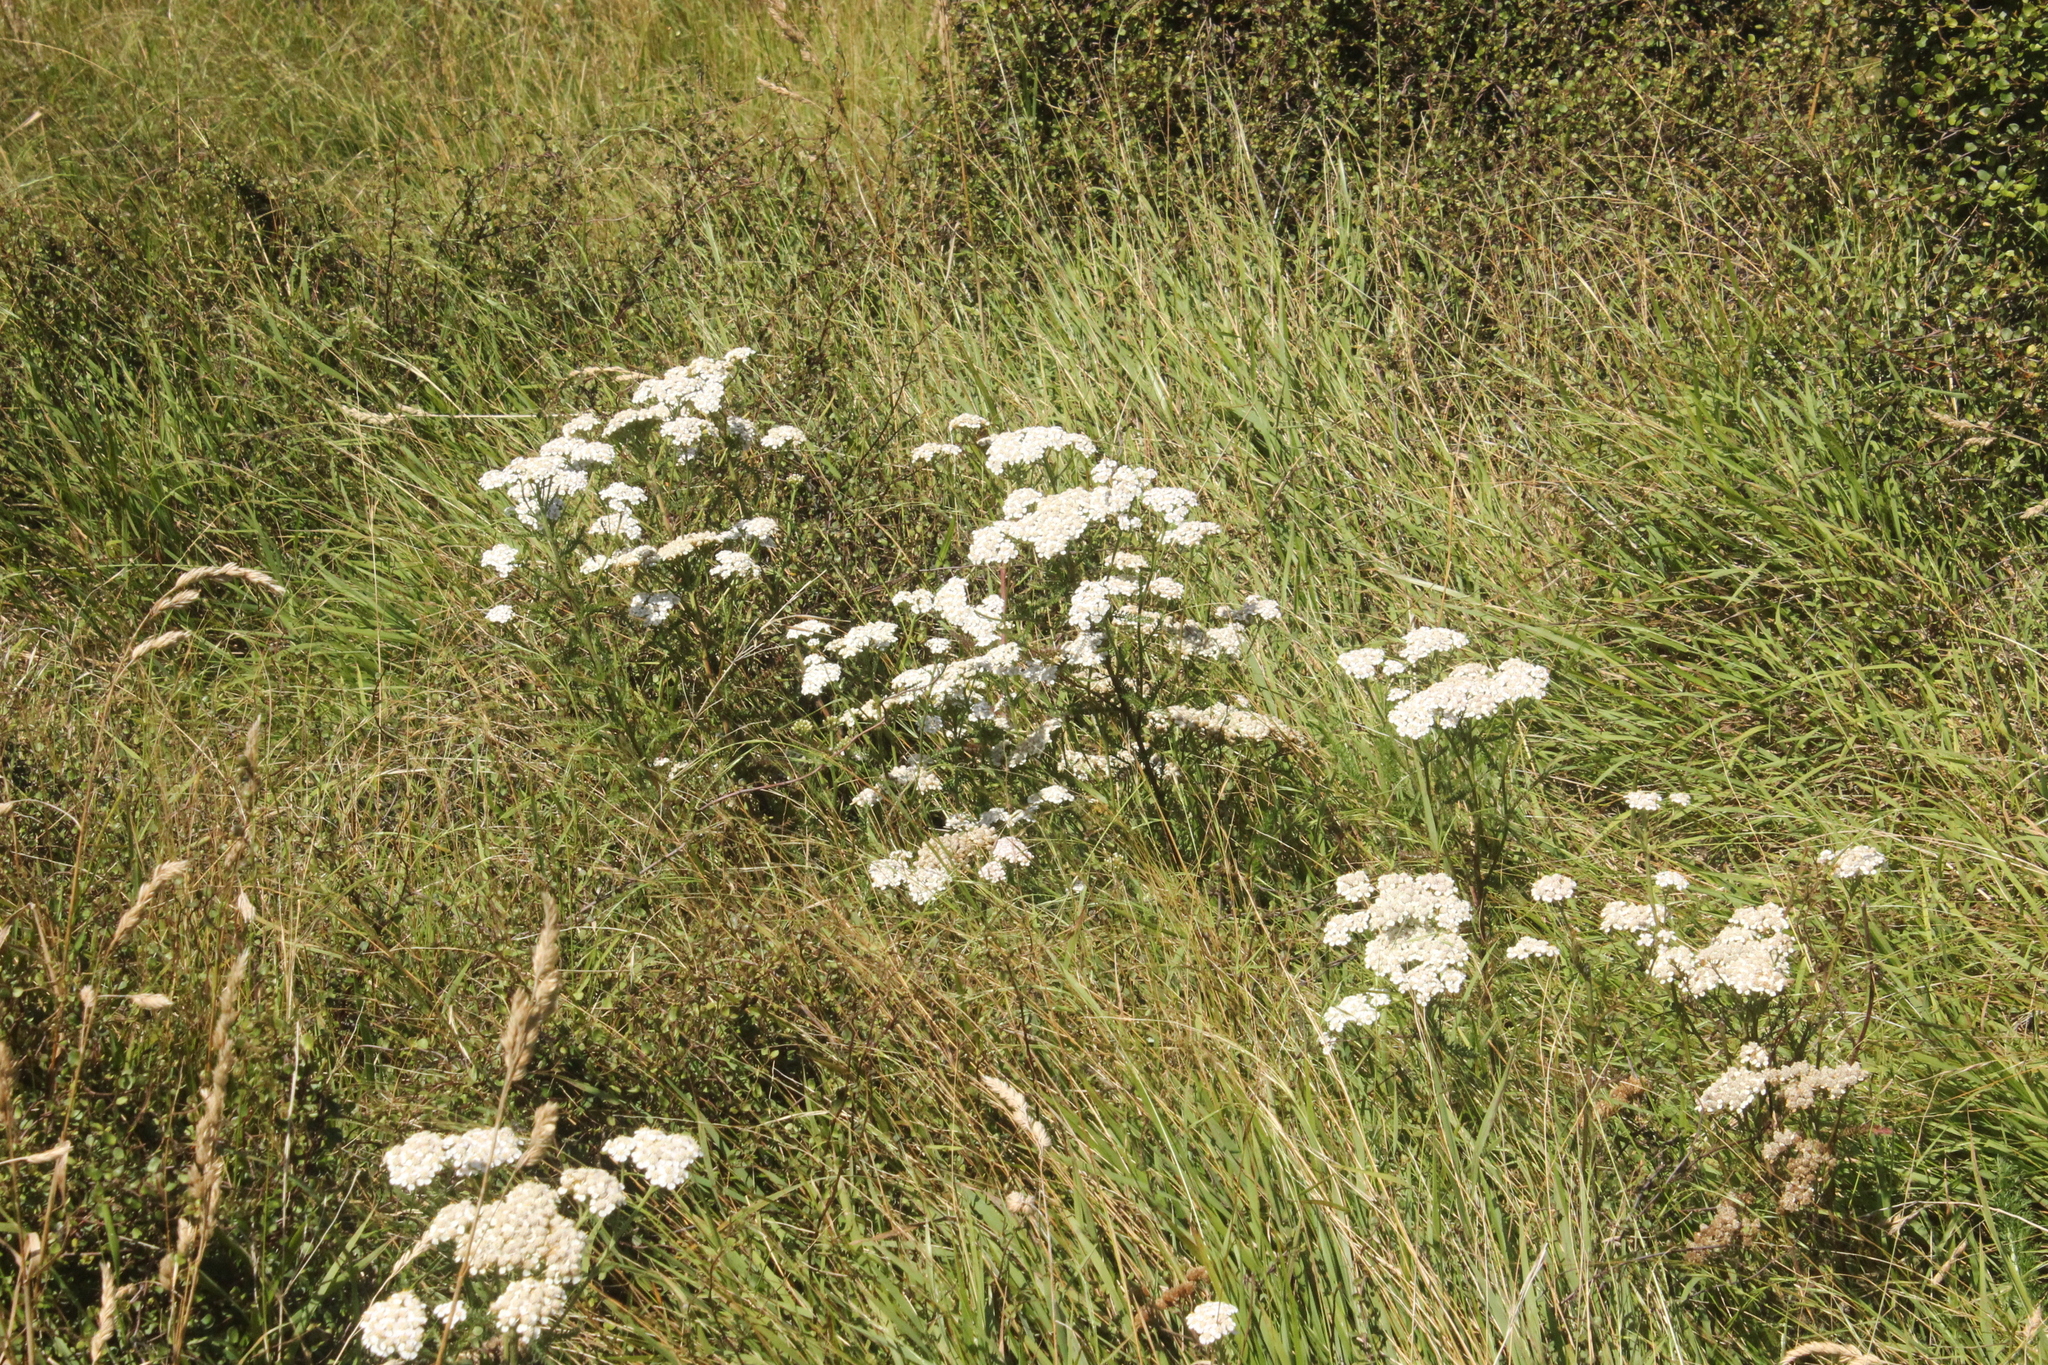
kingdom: Plantae
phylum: Tracheophyta
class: Magnoliopsida
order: Asterales
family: Asteraceae
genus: Achillea
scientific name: Achillea millefolium
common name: Yarrow
